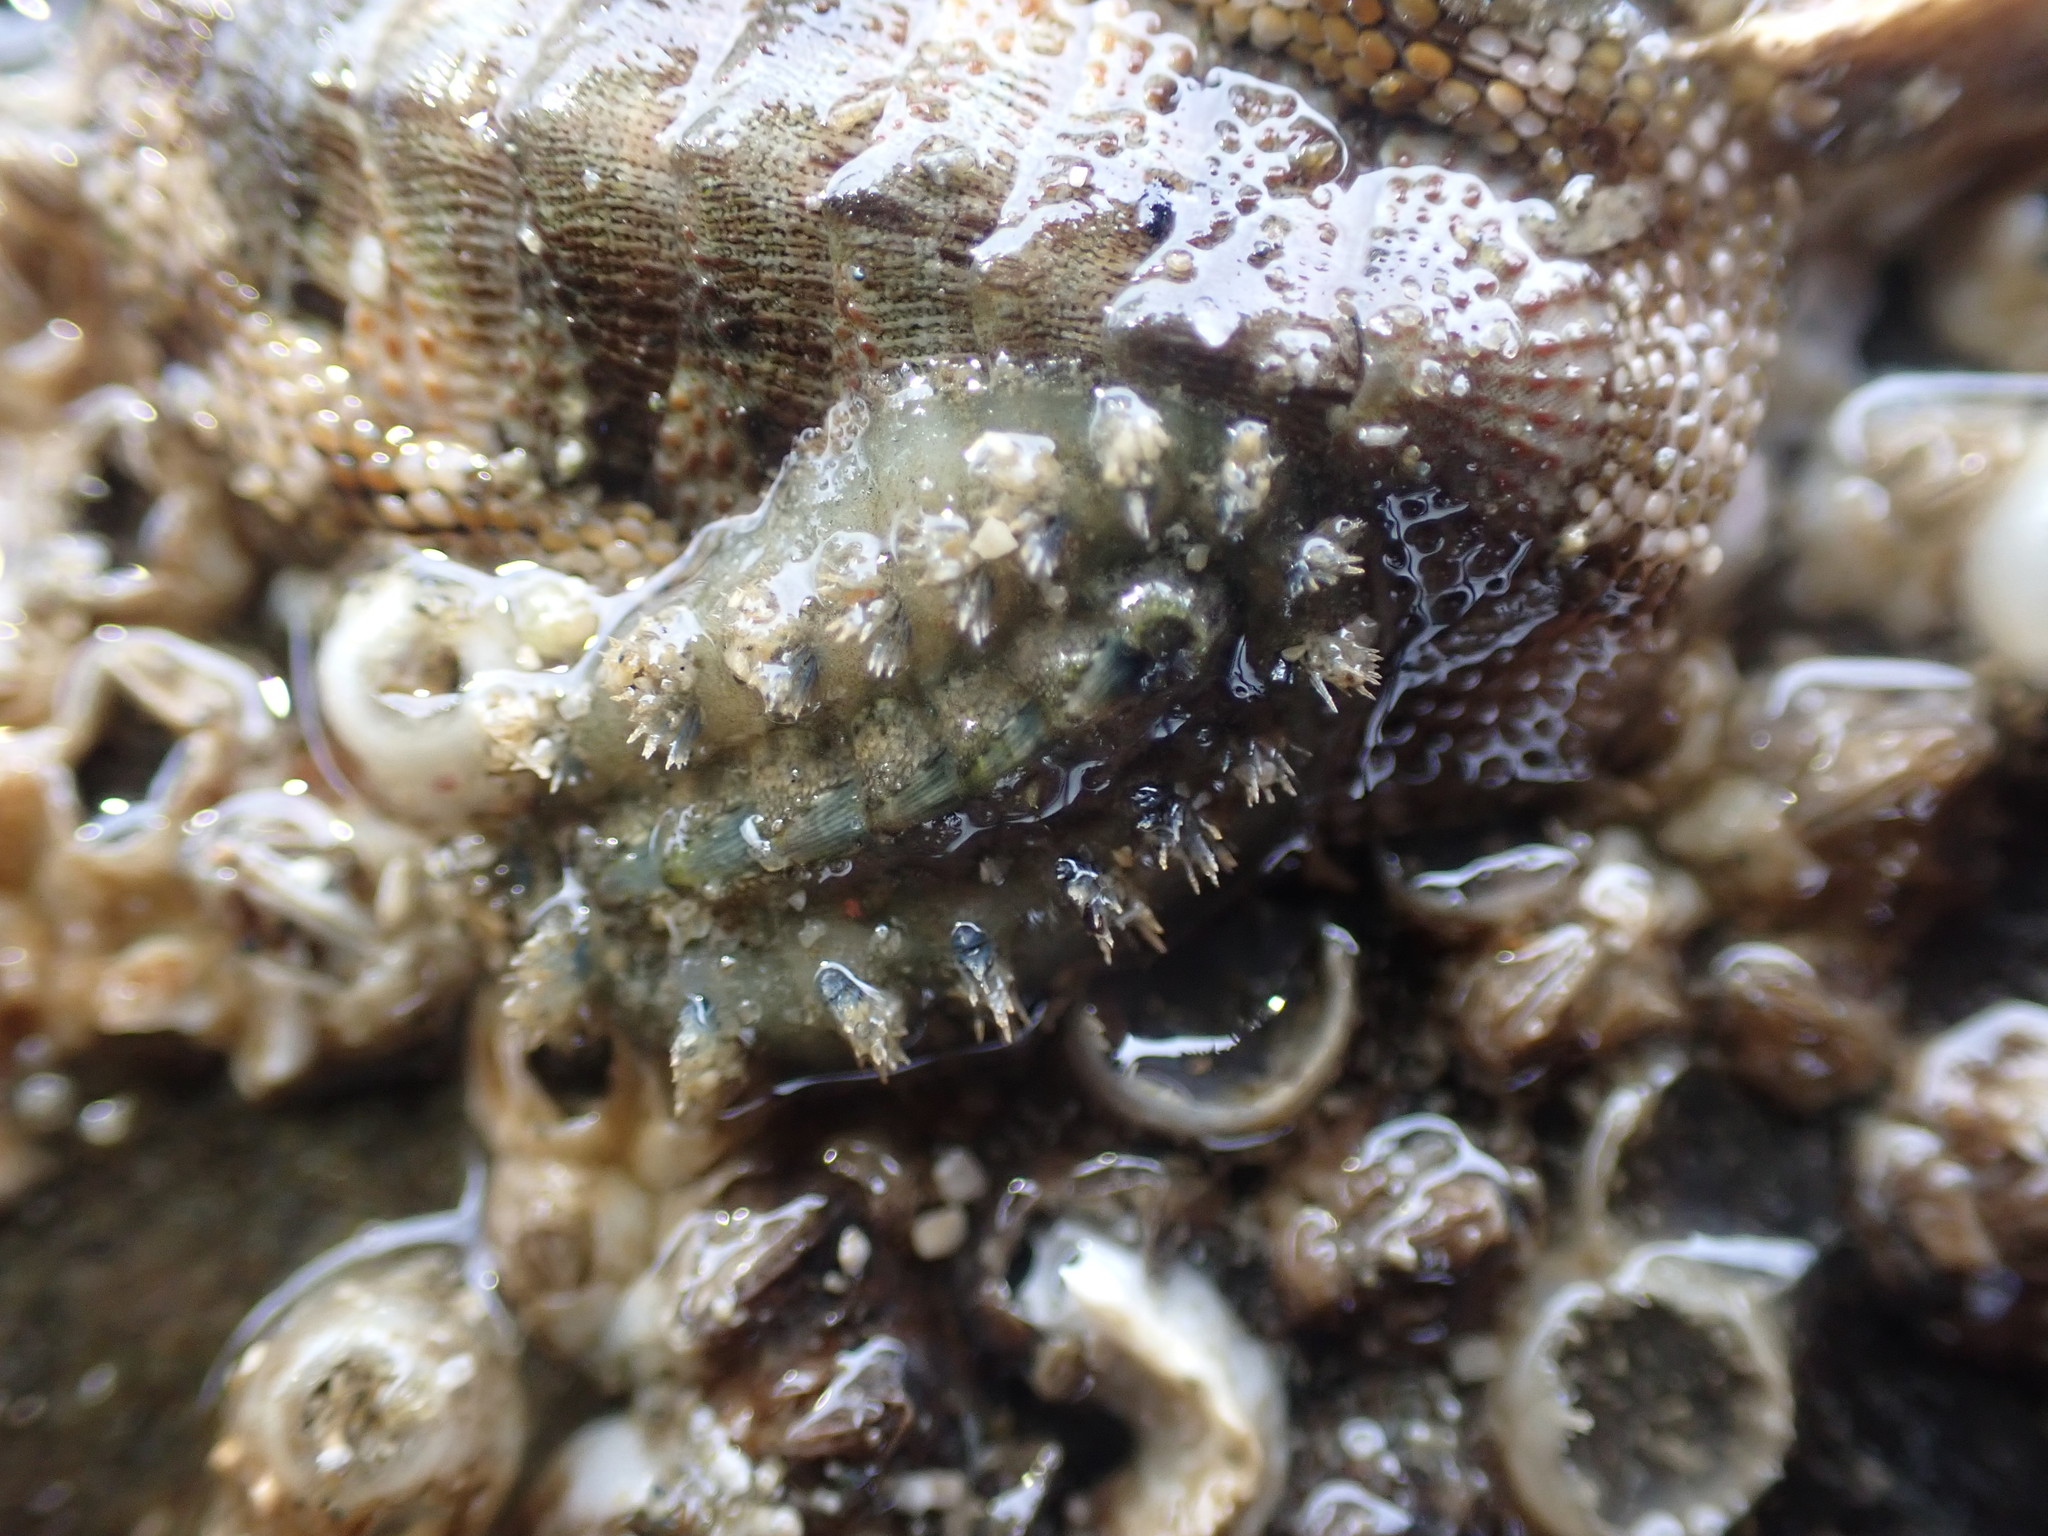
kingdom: Animalia
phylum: Mollusca
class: Polyplacophora
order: Chitonida
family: Acanthochitonidae
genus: Acanthochitona
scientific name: Acanthochitona zelandica
